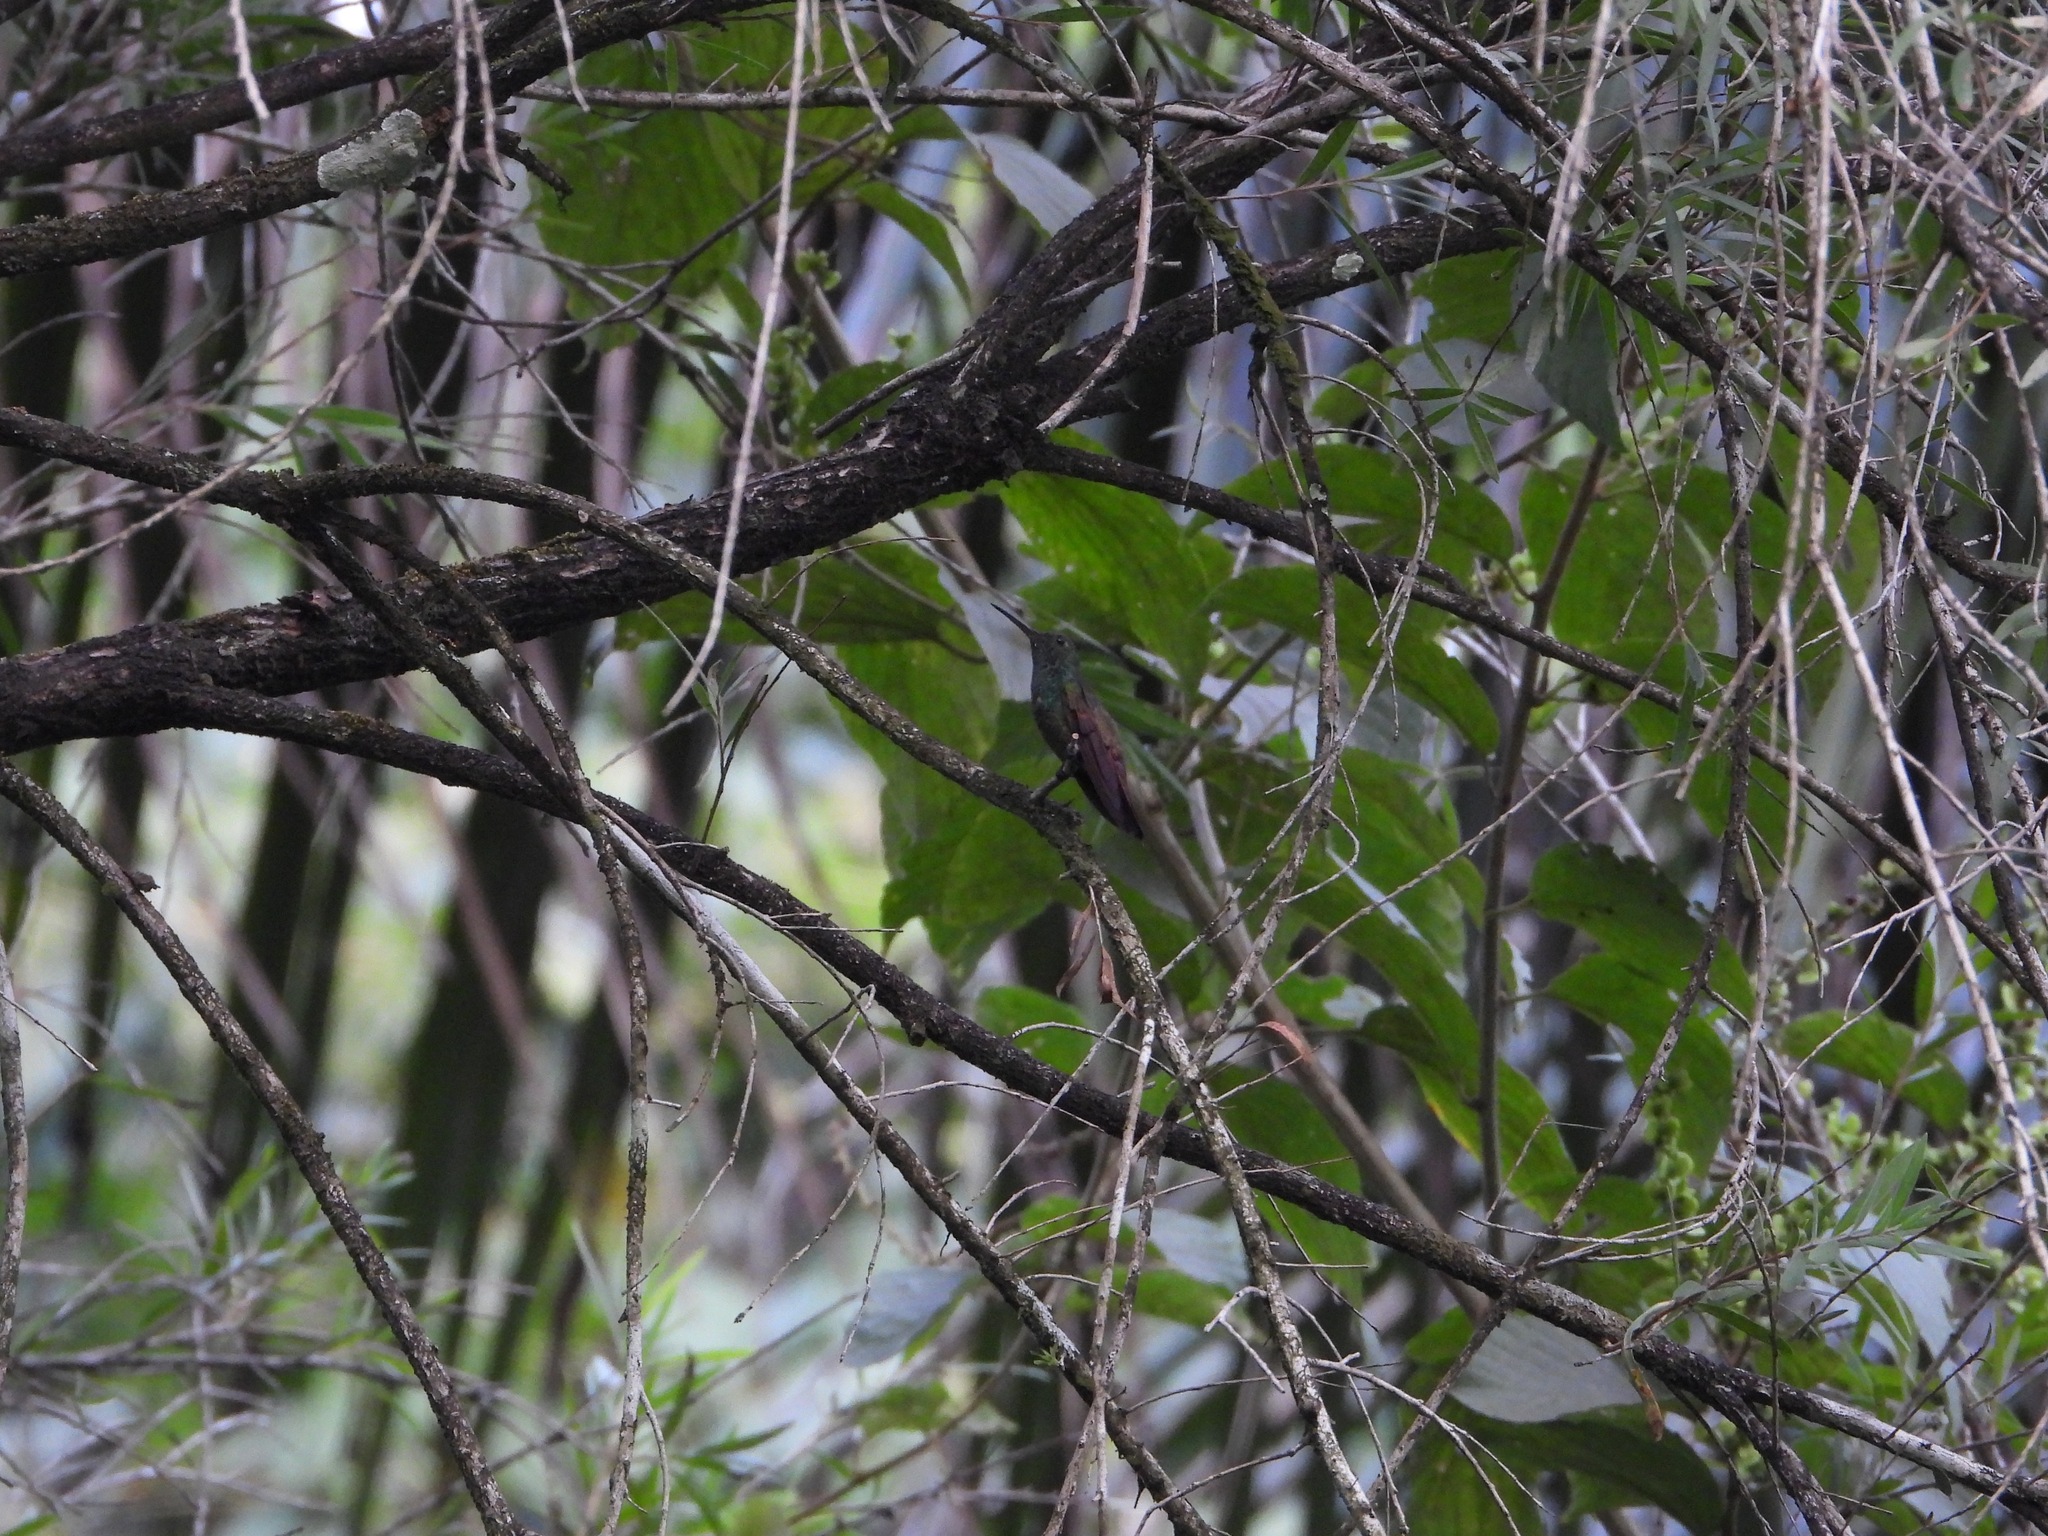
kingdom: Animalia
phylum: Chordata
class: Aves
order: Apodiformes
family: Trochilidae
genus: Saucerottia
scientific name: Saucerottia beryllina
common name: Berylline hummingbird
